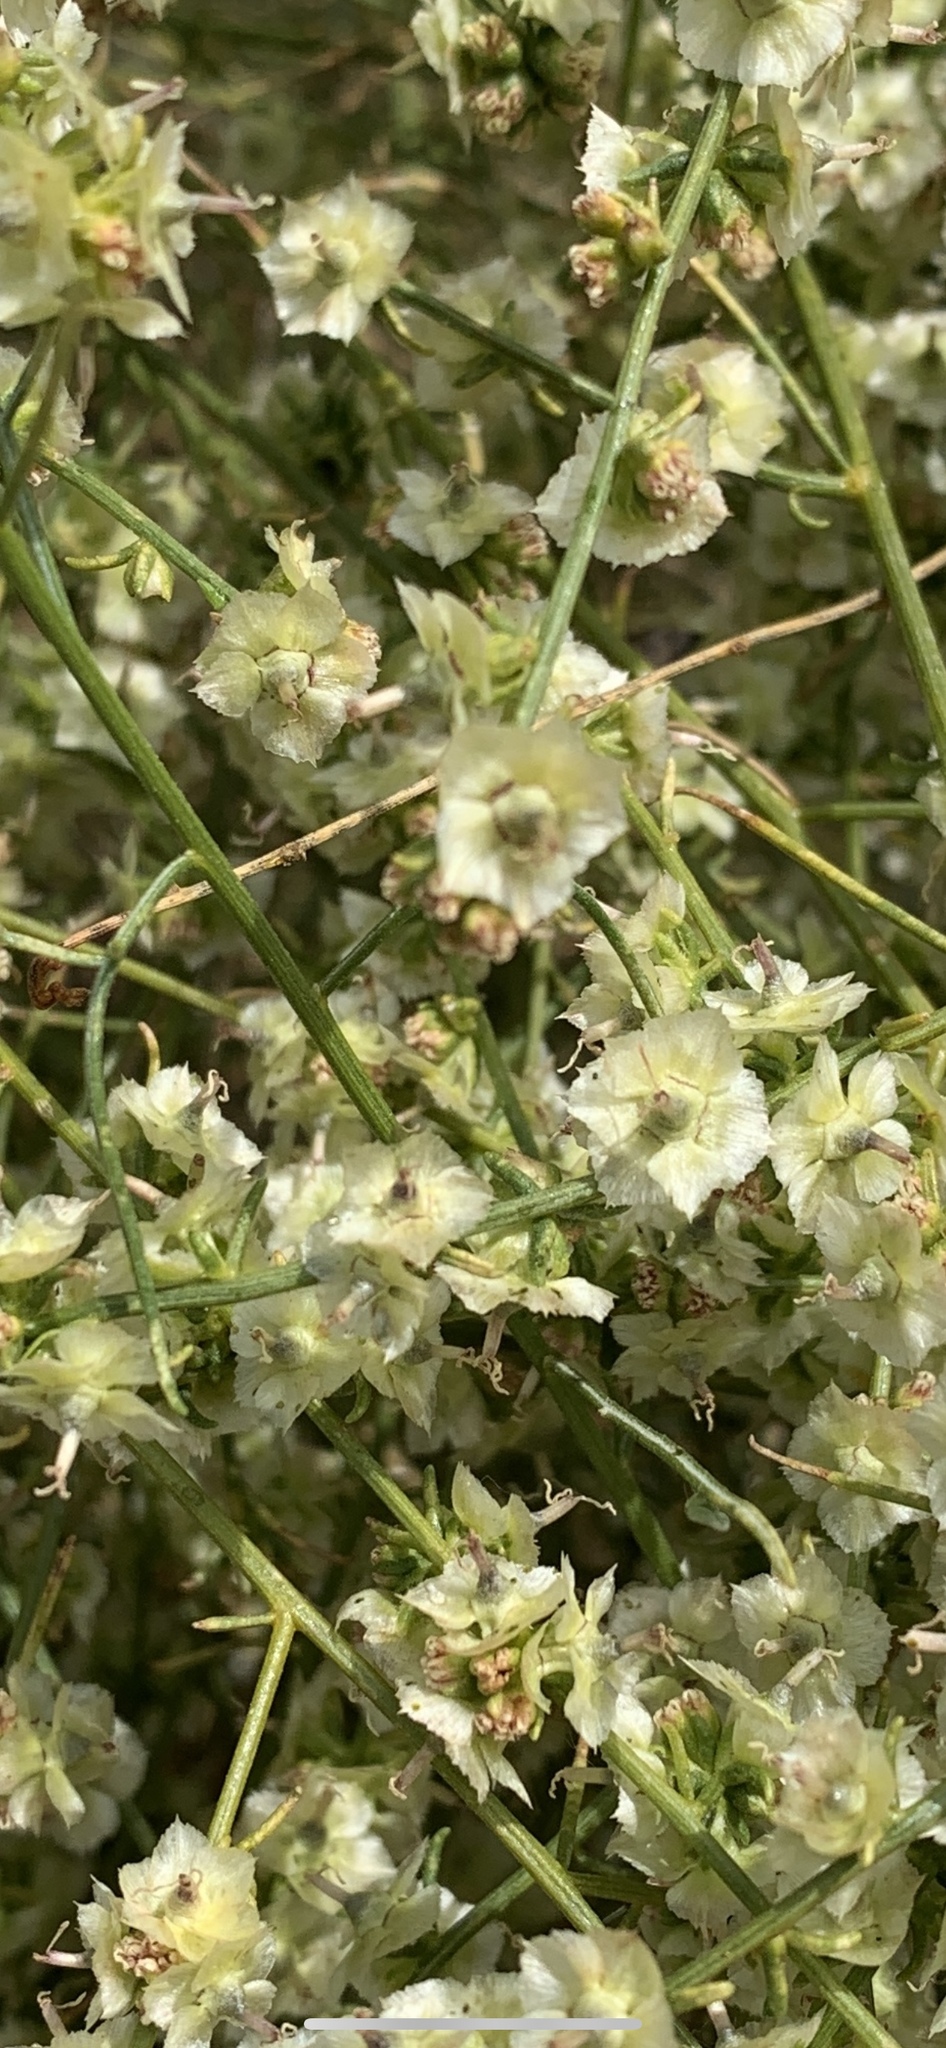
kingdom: Plantae
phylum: Tracheophyta
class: Magnoliopsida
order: Asterales
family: Asteraceae
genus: Ambrosia
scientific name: Ambrosia salsola
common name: Burrobrush
